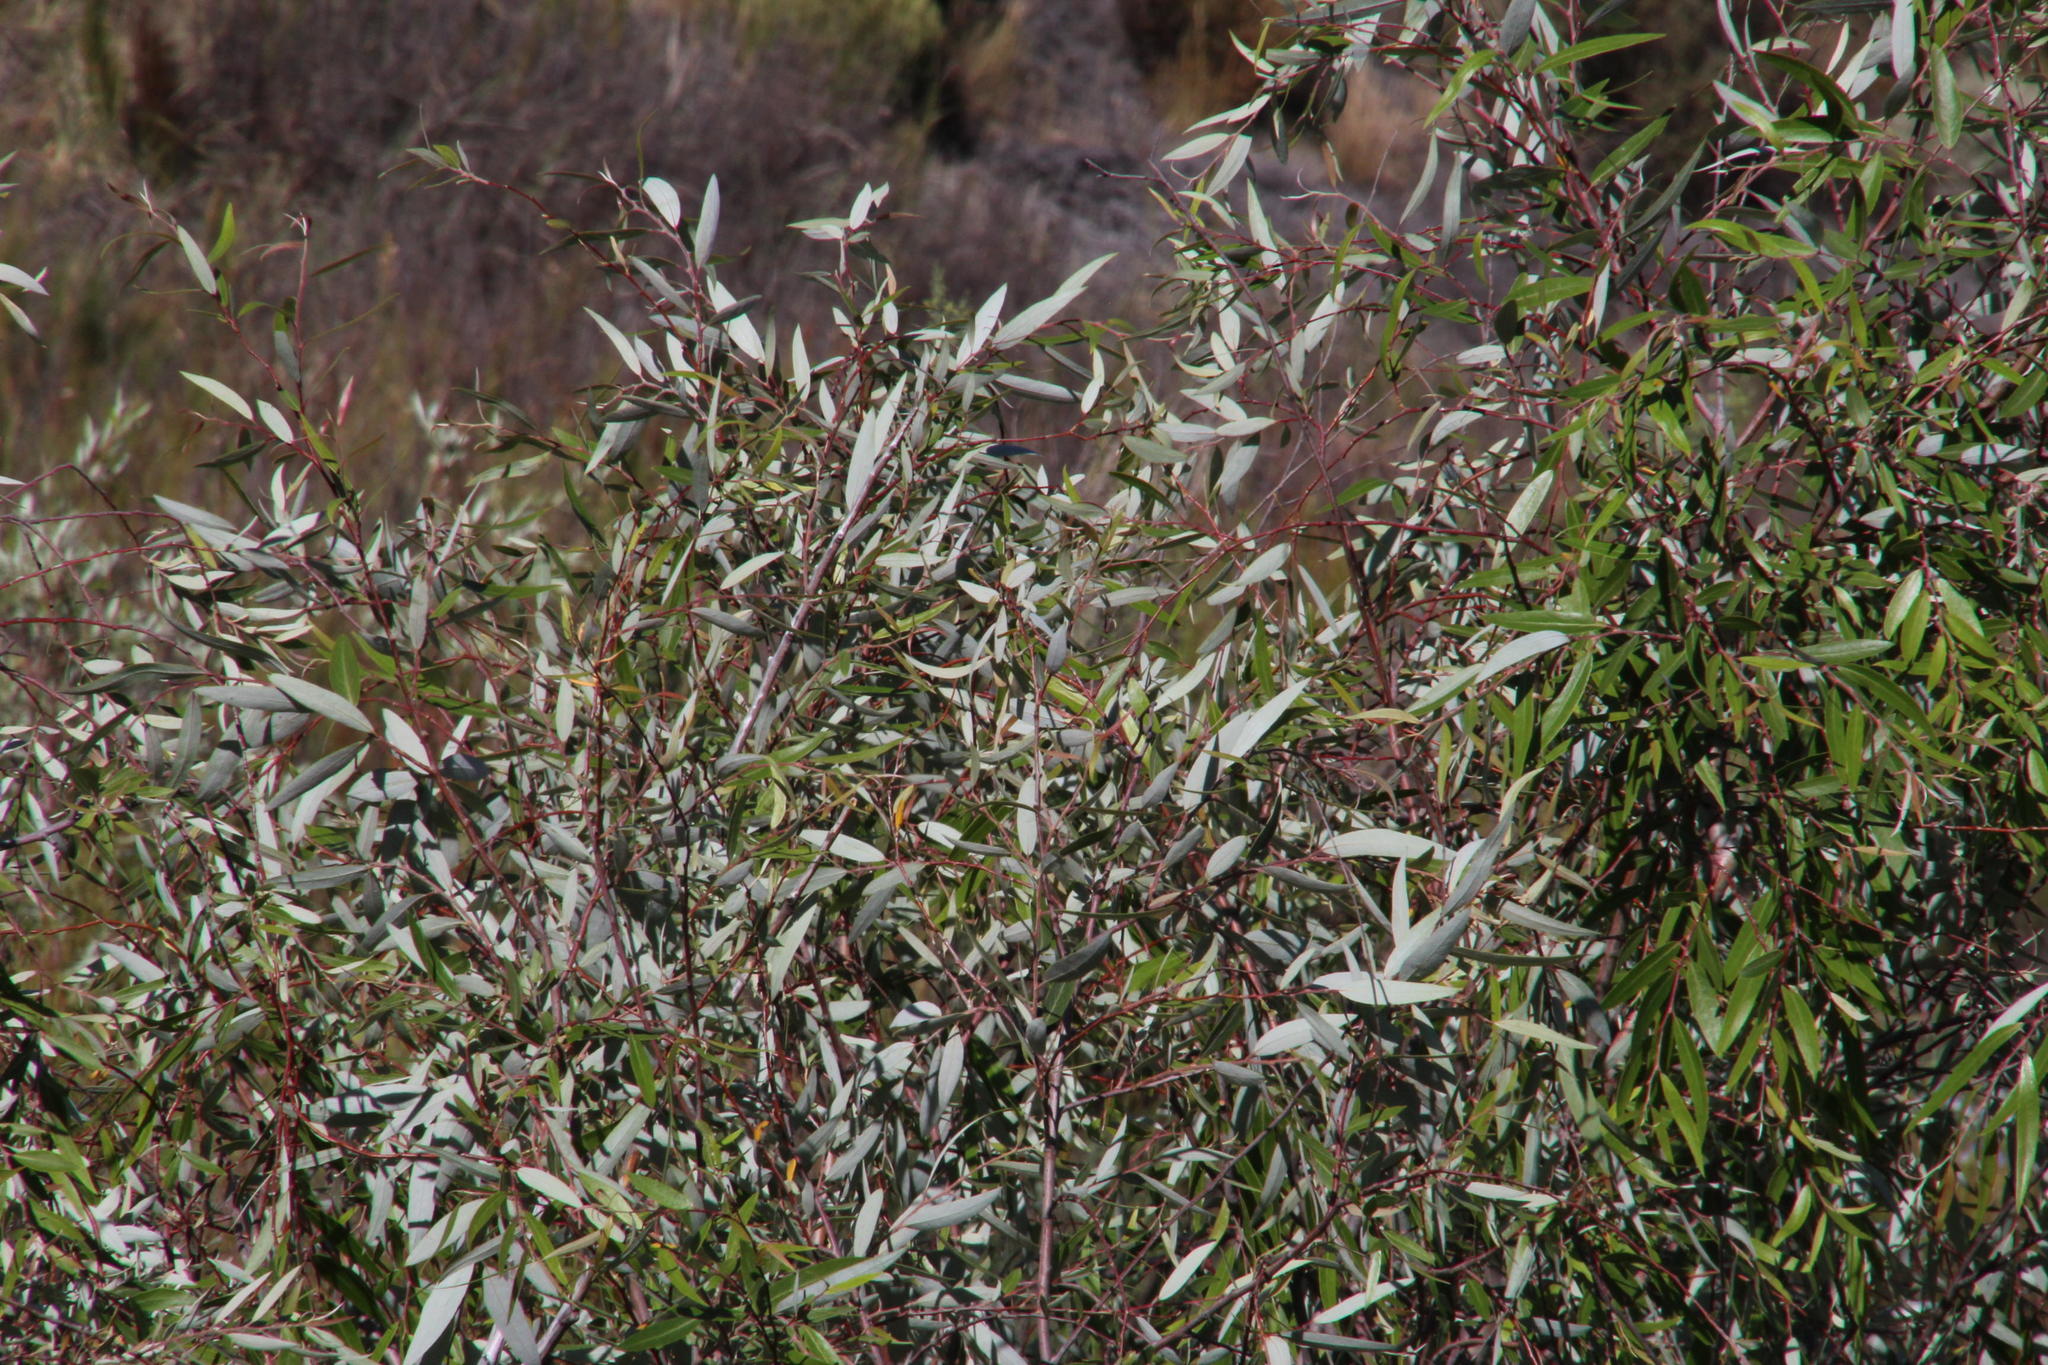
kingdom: Plantae
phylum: Tracheophyta
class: Magnoliopsida
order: Malpighiales
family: Salicaceae
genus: Salix
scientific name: Salix mucronata
